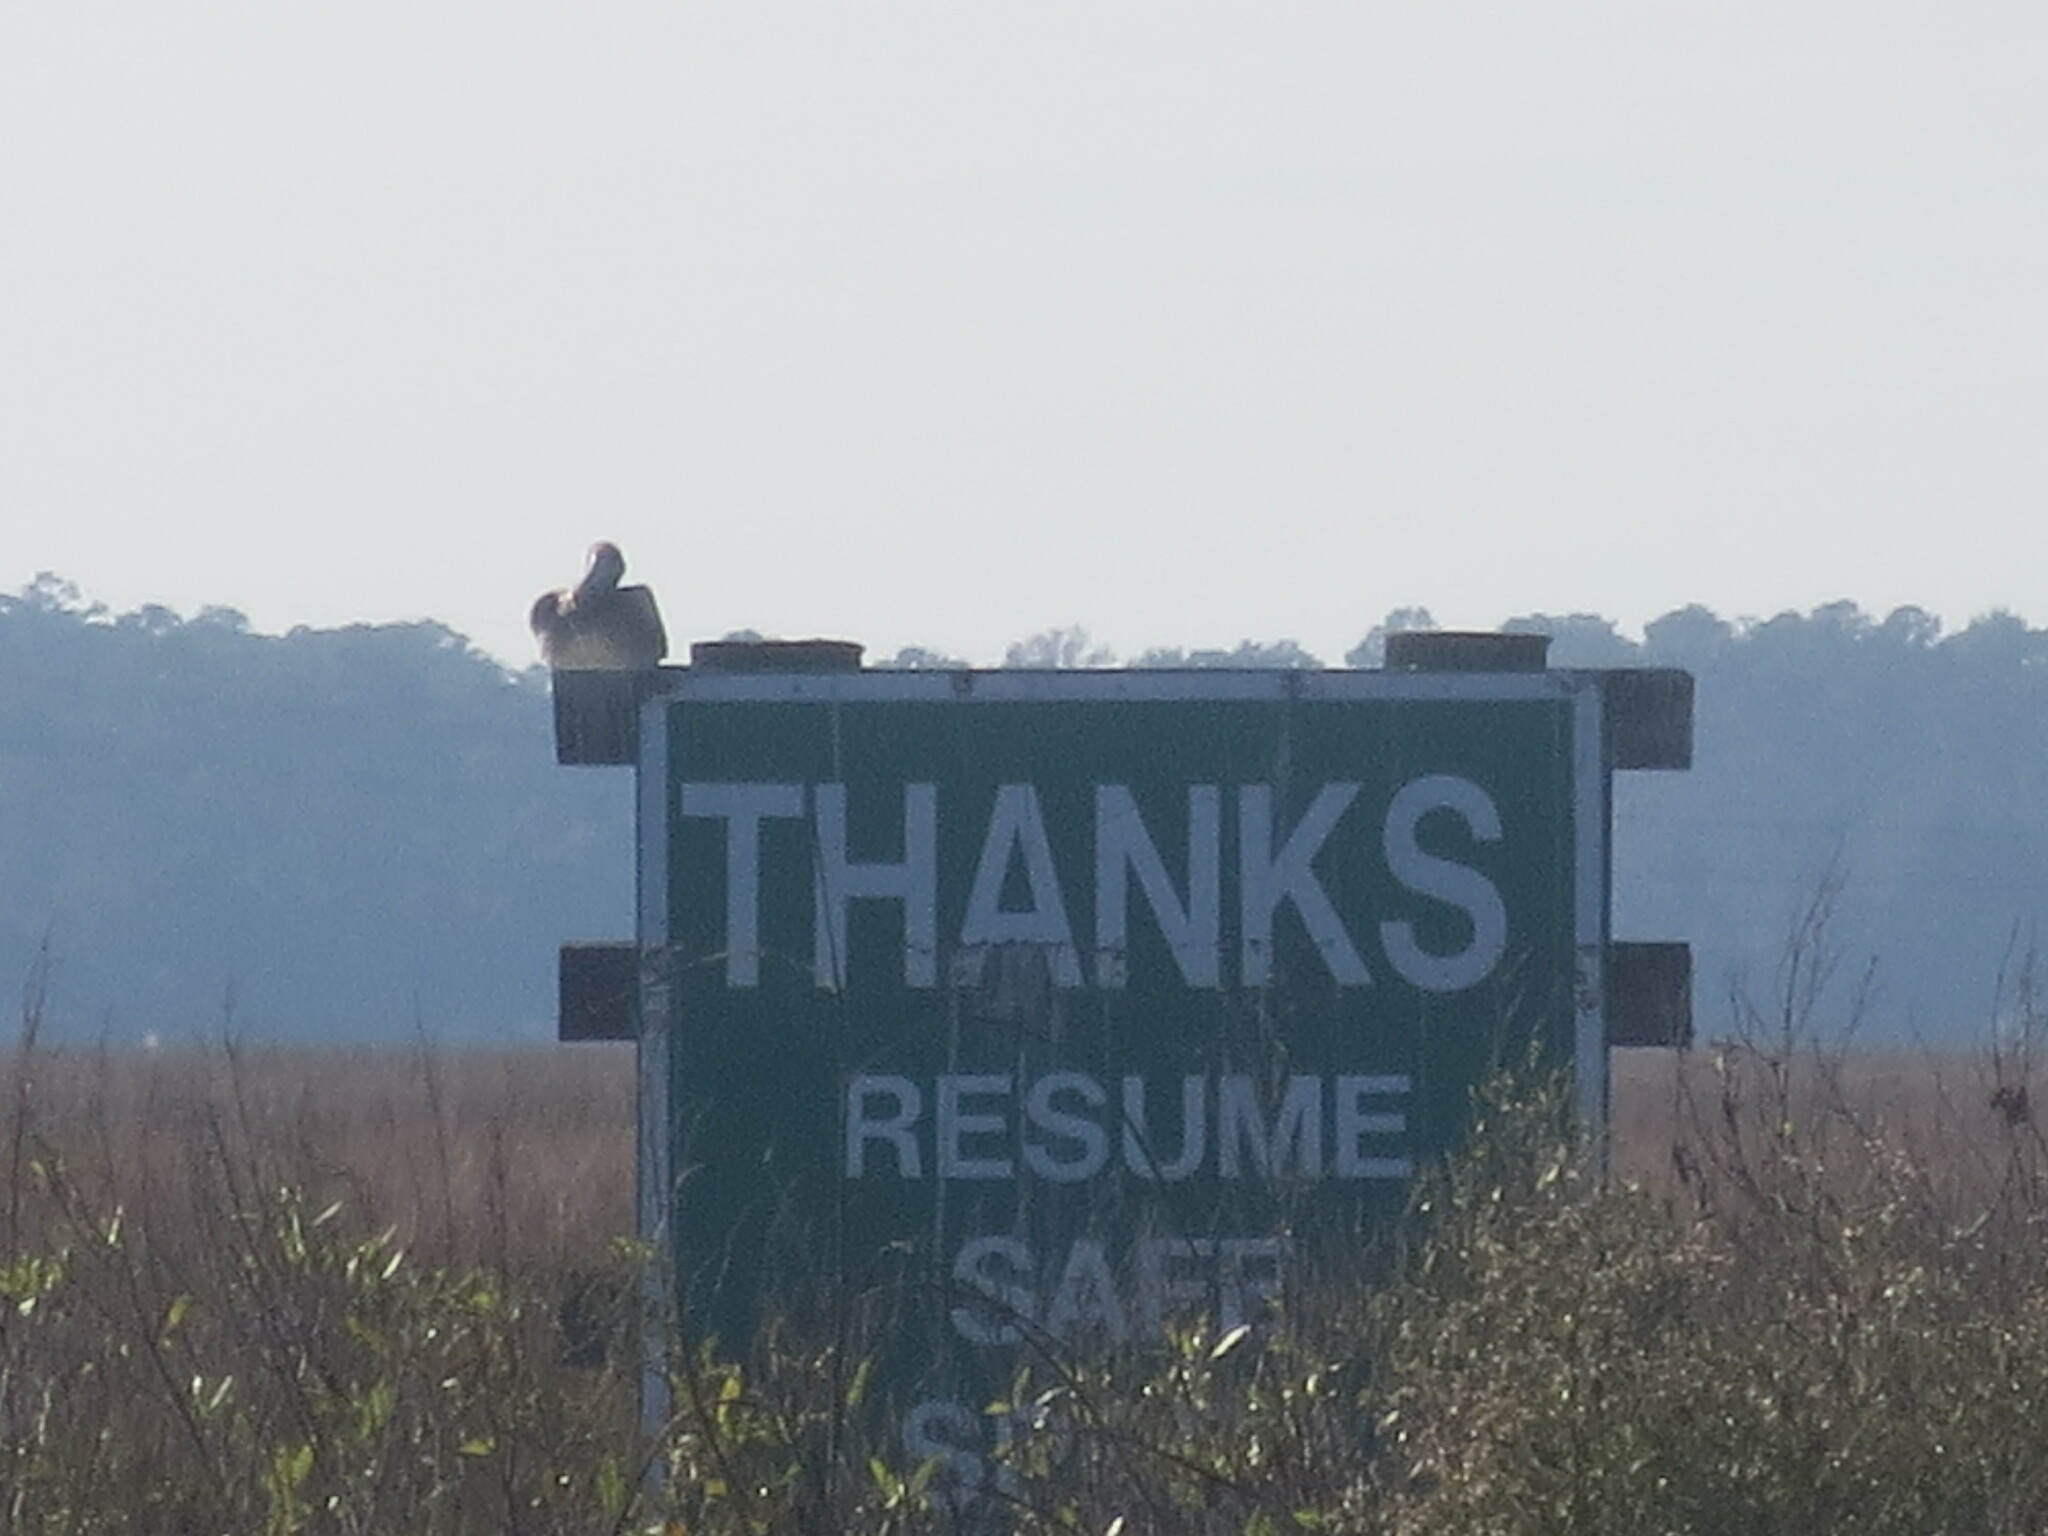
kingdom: Animalia
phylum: Chordata
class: Aves
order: Pelecaniformes
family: Pelecanidae
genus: Pelecanus
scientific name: Pelecanus occidentalis
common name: Brown pelican
